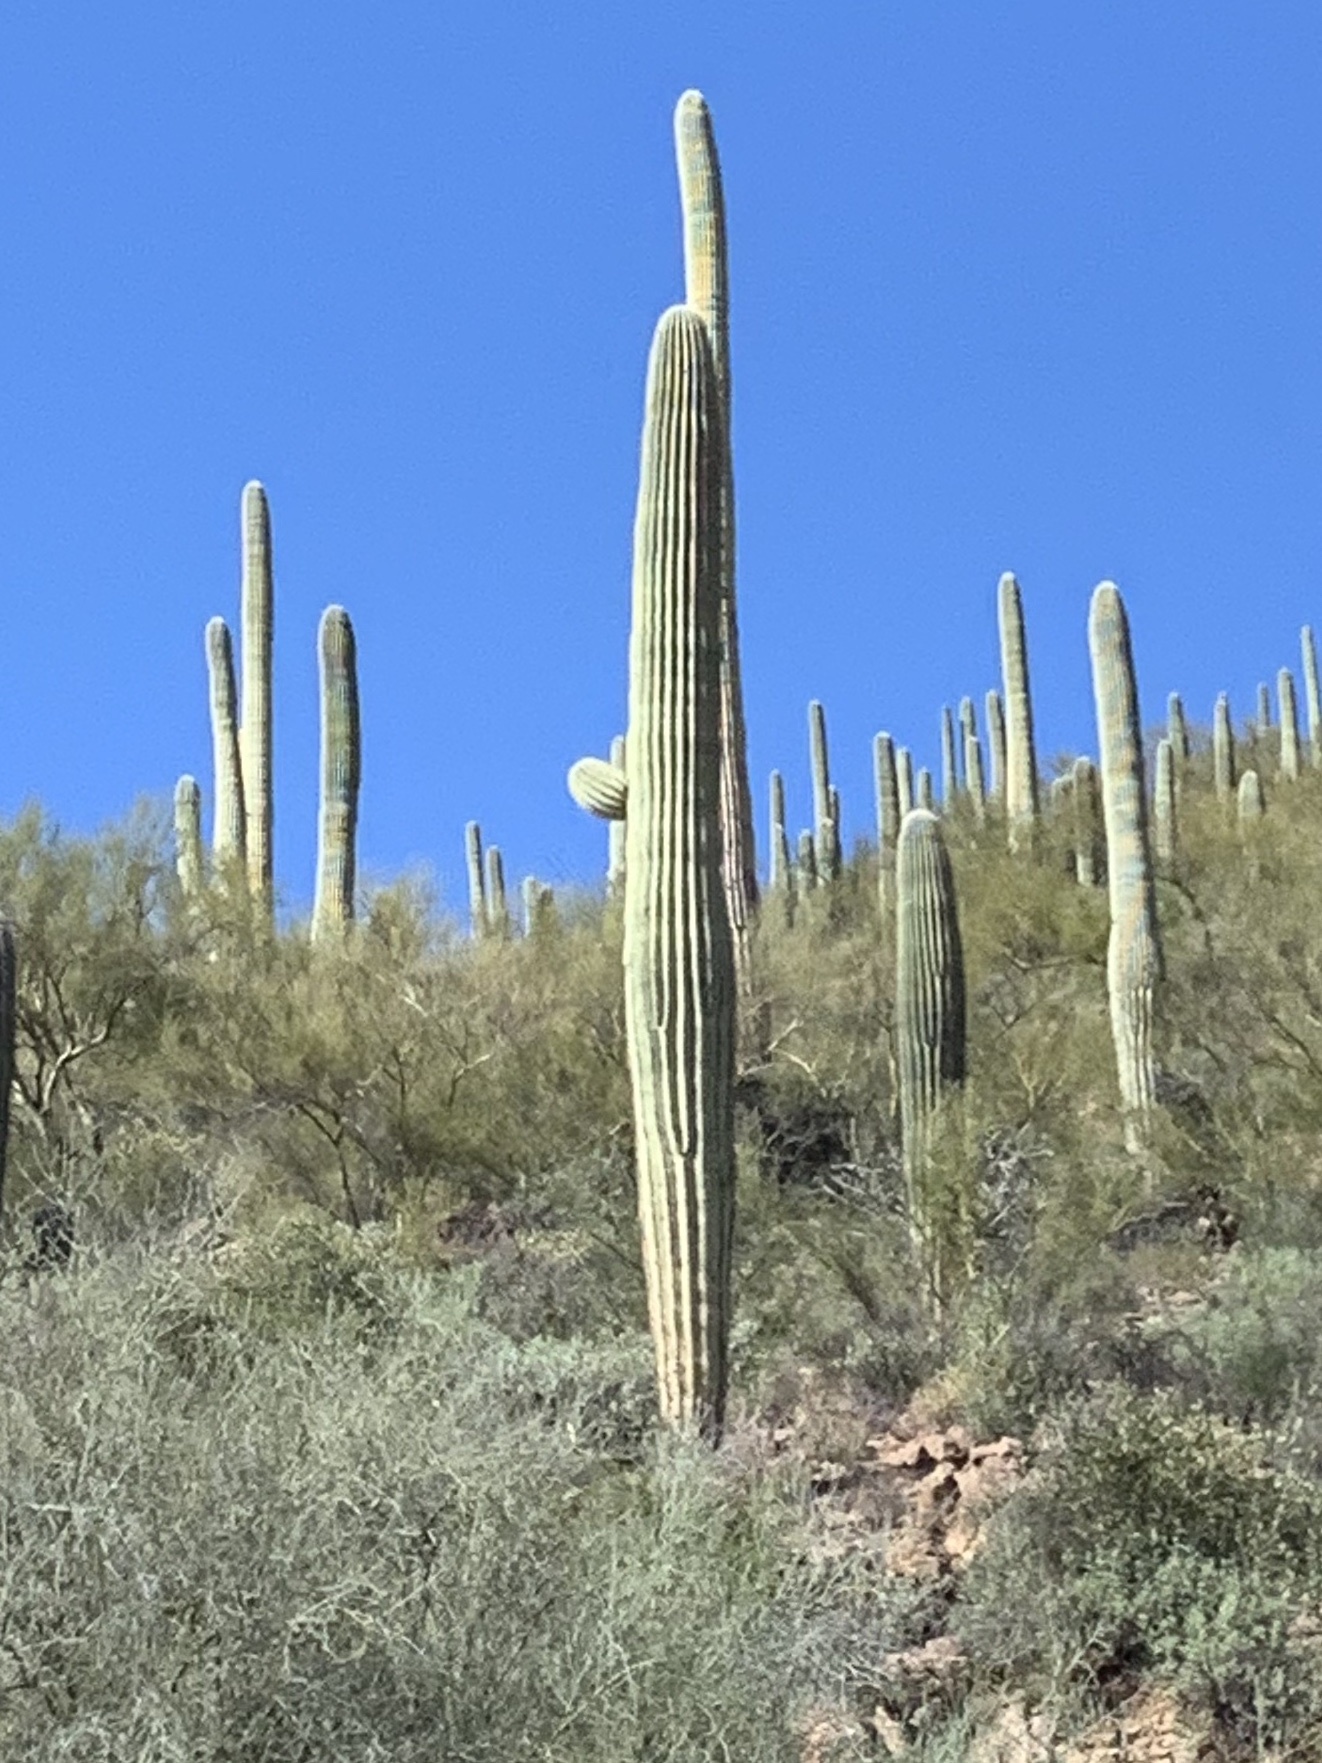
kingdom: Plantae
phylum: Tracheophyta
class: Magnoliopsida
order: Caryophyllales
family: Cactaceae
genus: Carnegiea
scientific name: Carnegiea gigantea
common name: Saguaro
